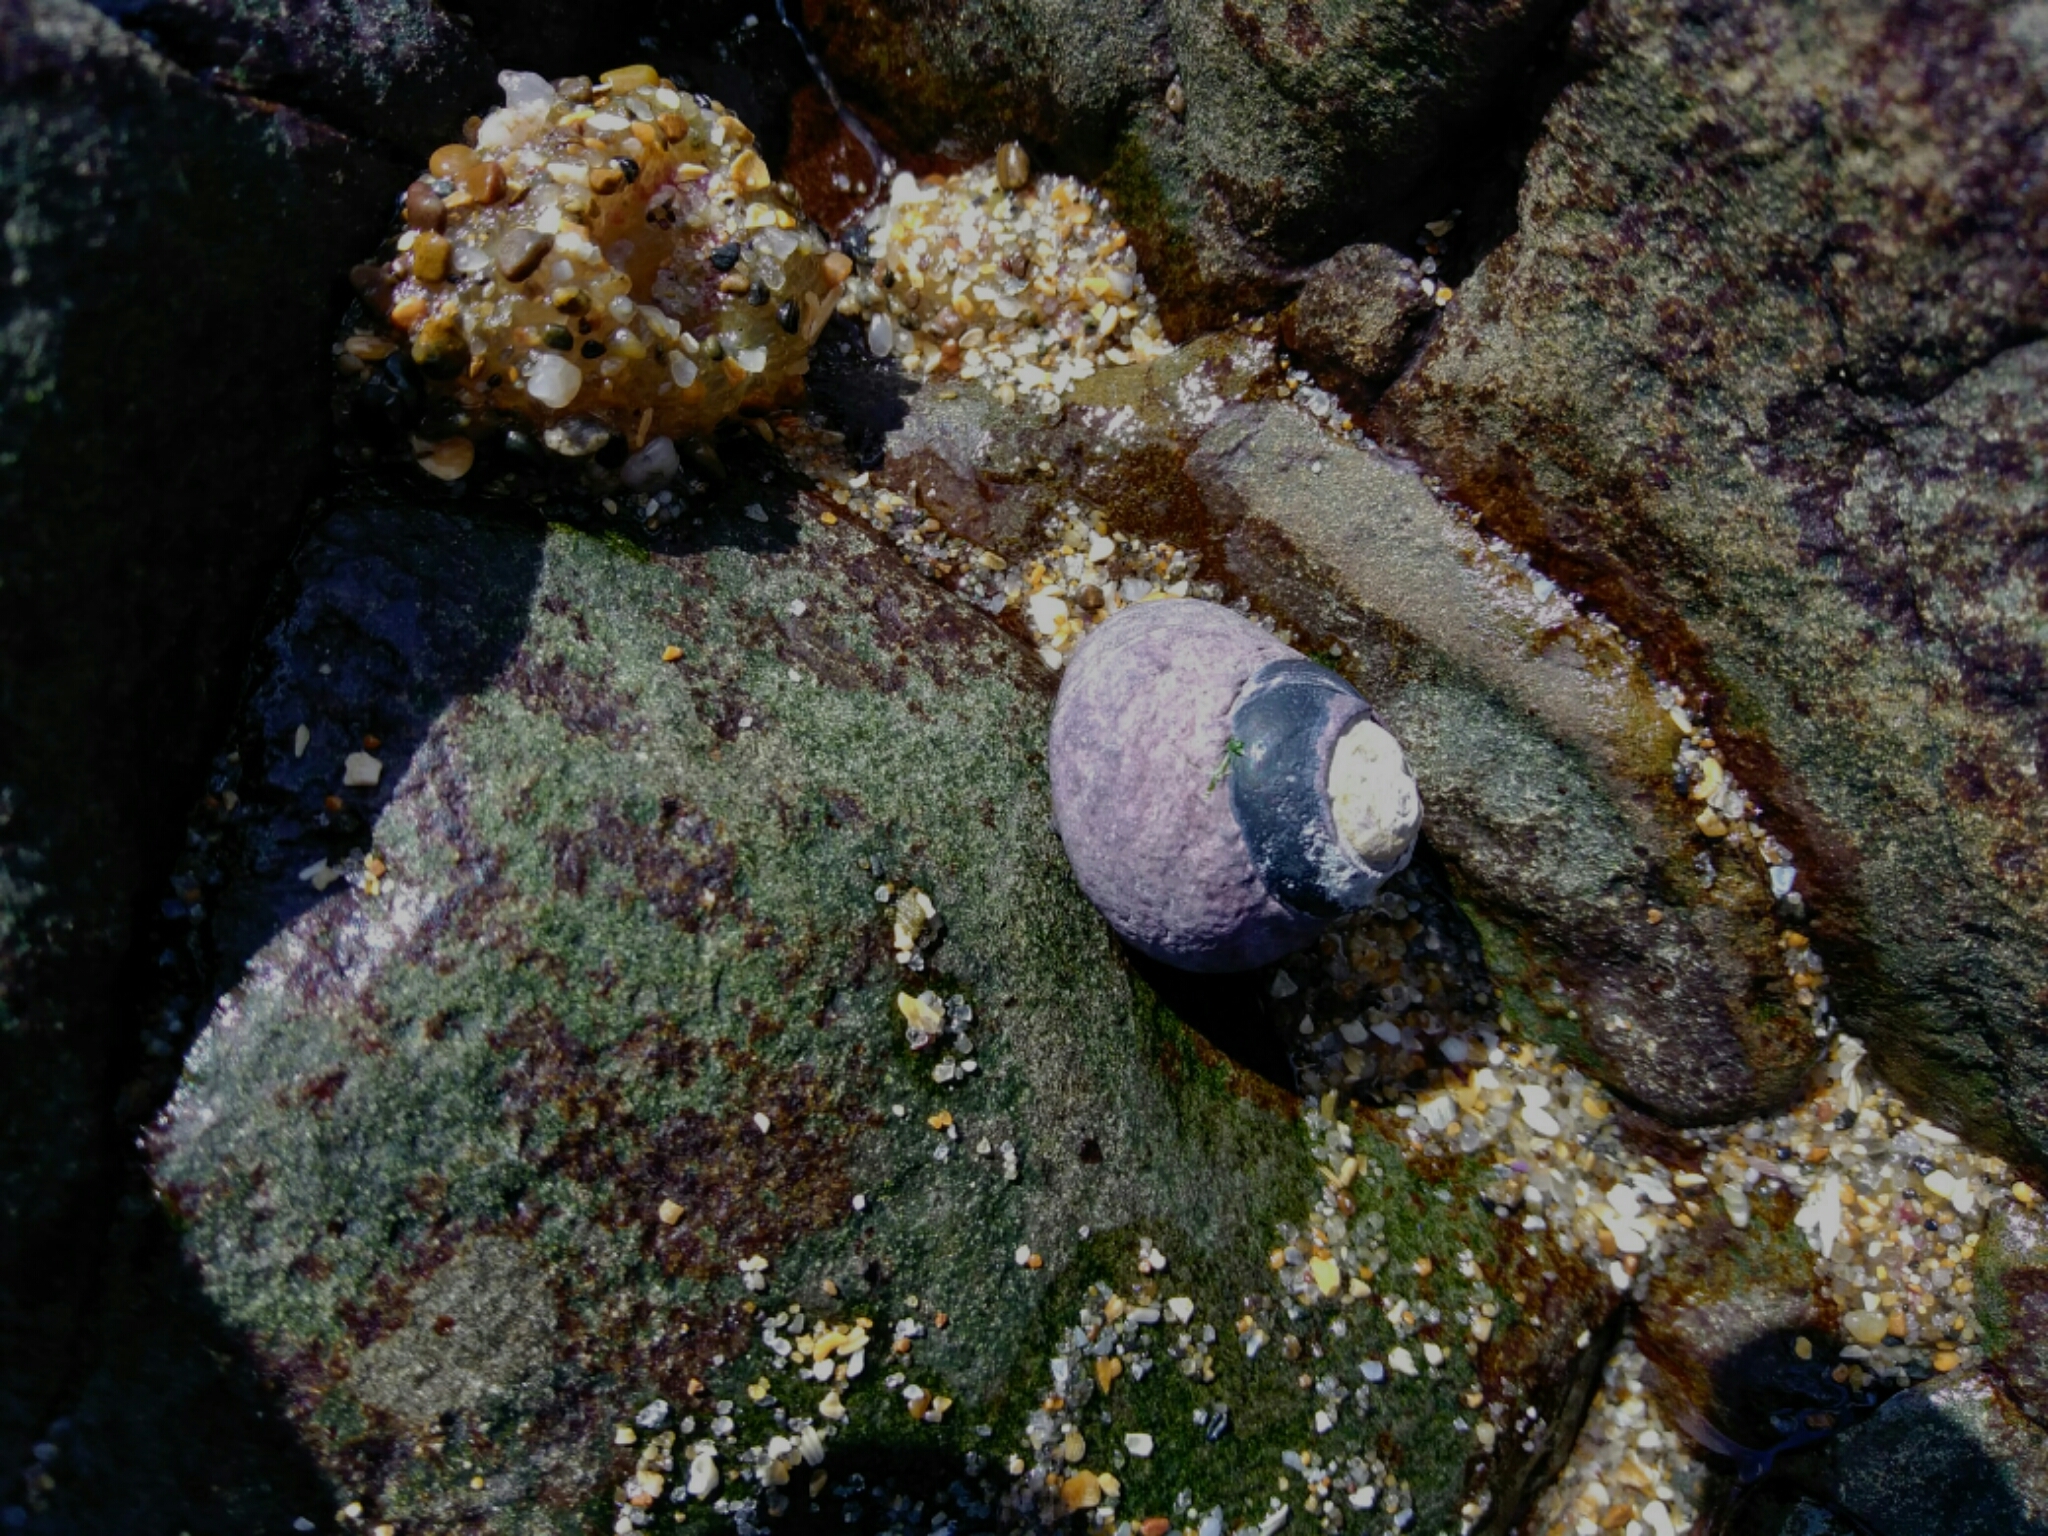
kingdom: Animalia
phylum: Mollusca
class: Gastropoda
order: Trochida
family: Tegulidae
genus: Tegula
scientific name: Tegula funebralis
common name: Black tegula
